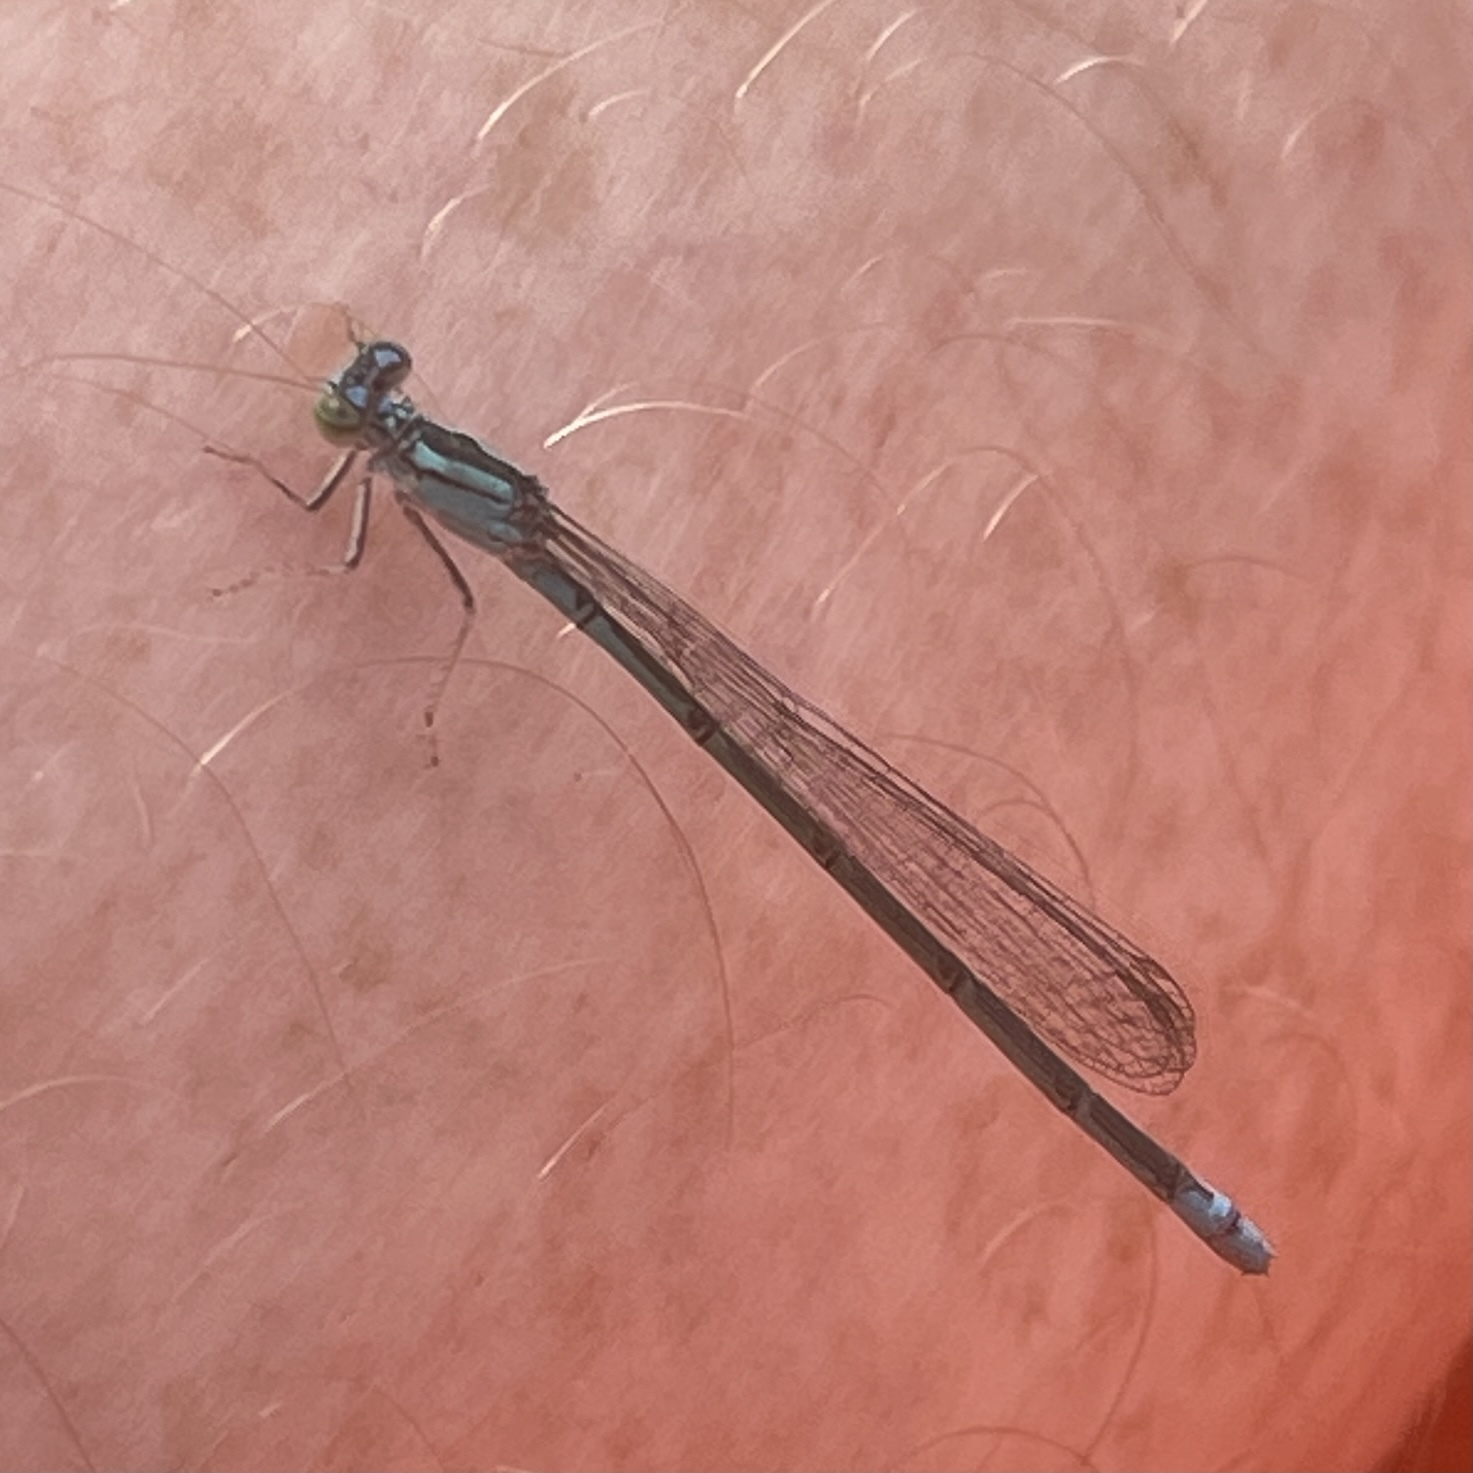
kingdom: Animalia
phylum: Arthropoda
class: Insecta
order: Odonata
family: Coenagrionidae
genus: Enallagma
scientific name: Enallagma traviatum
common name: Slender bluet
